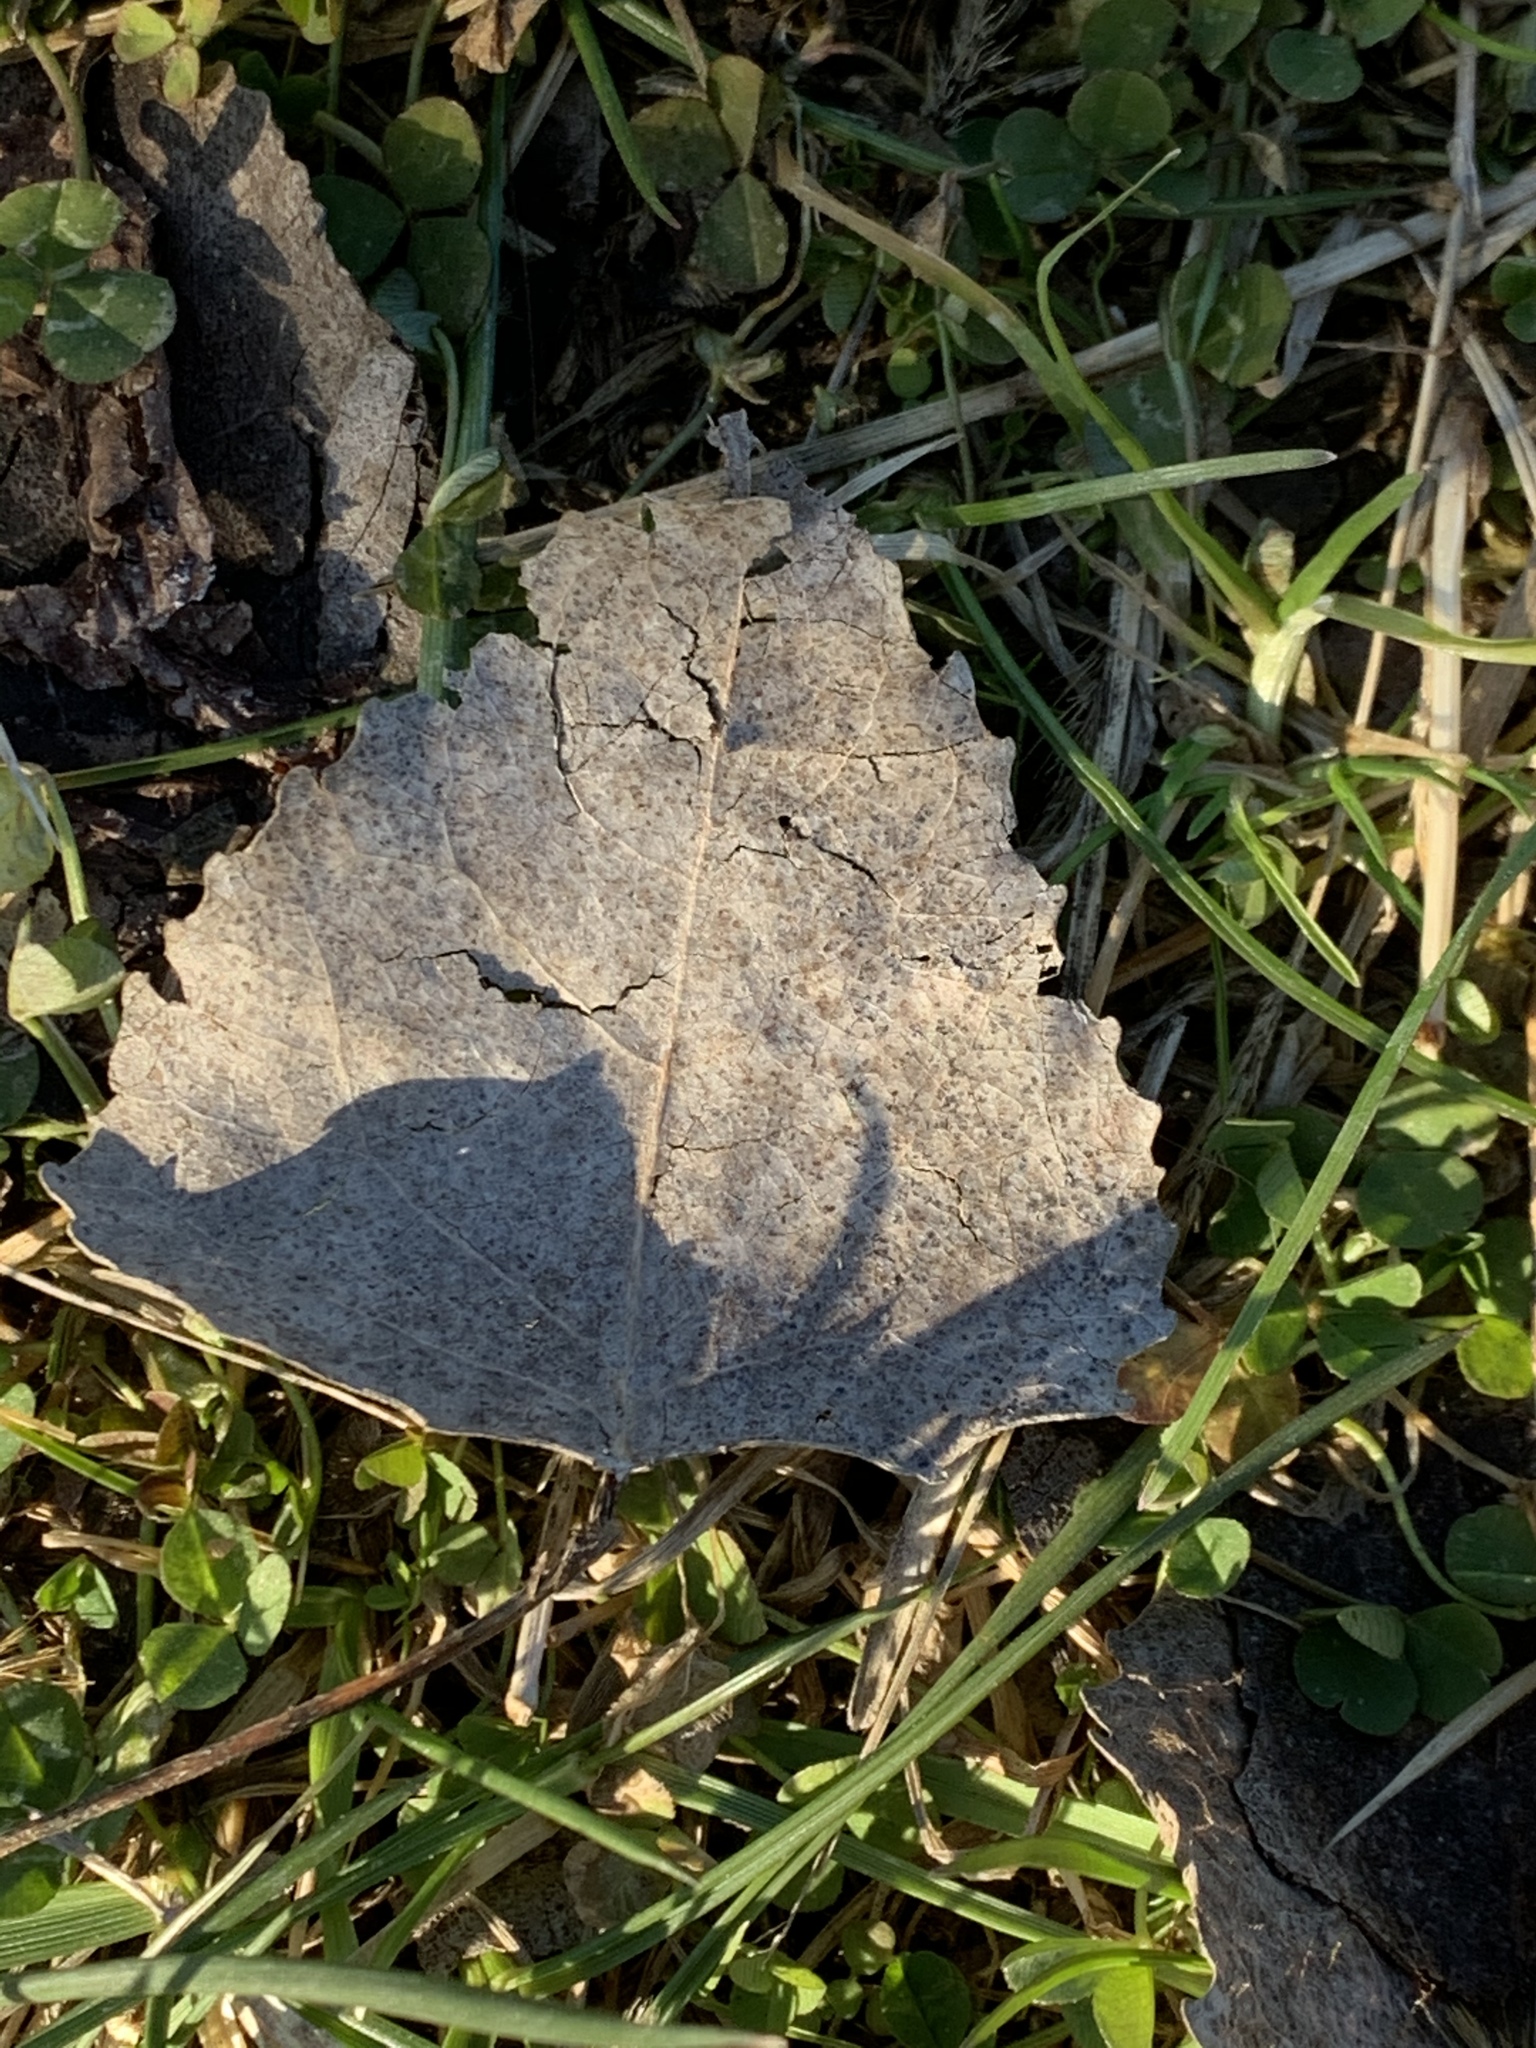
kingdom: Plantae
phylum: Tracheophyta
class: Magnoliopsida
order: Malpighiales
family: Salicaceae
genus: Populus
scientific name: Populus deltoides
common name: Eastern cottonwood
